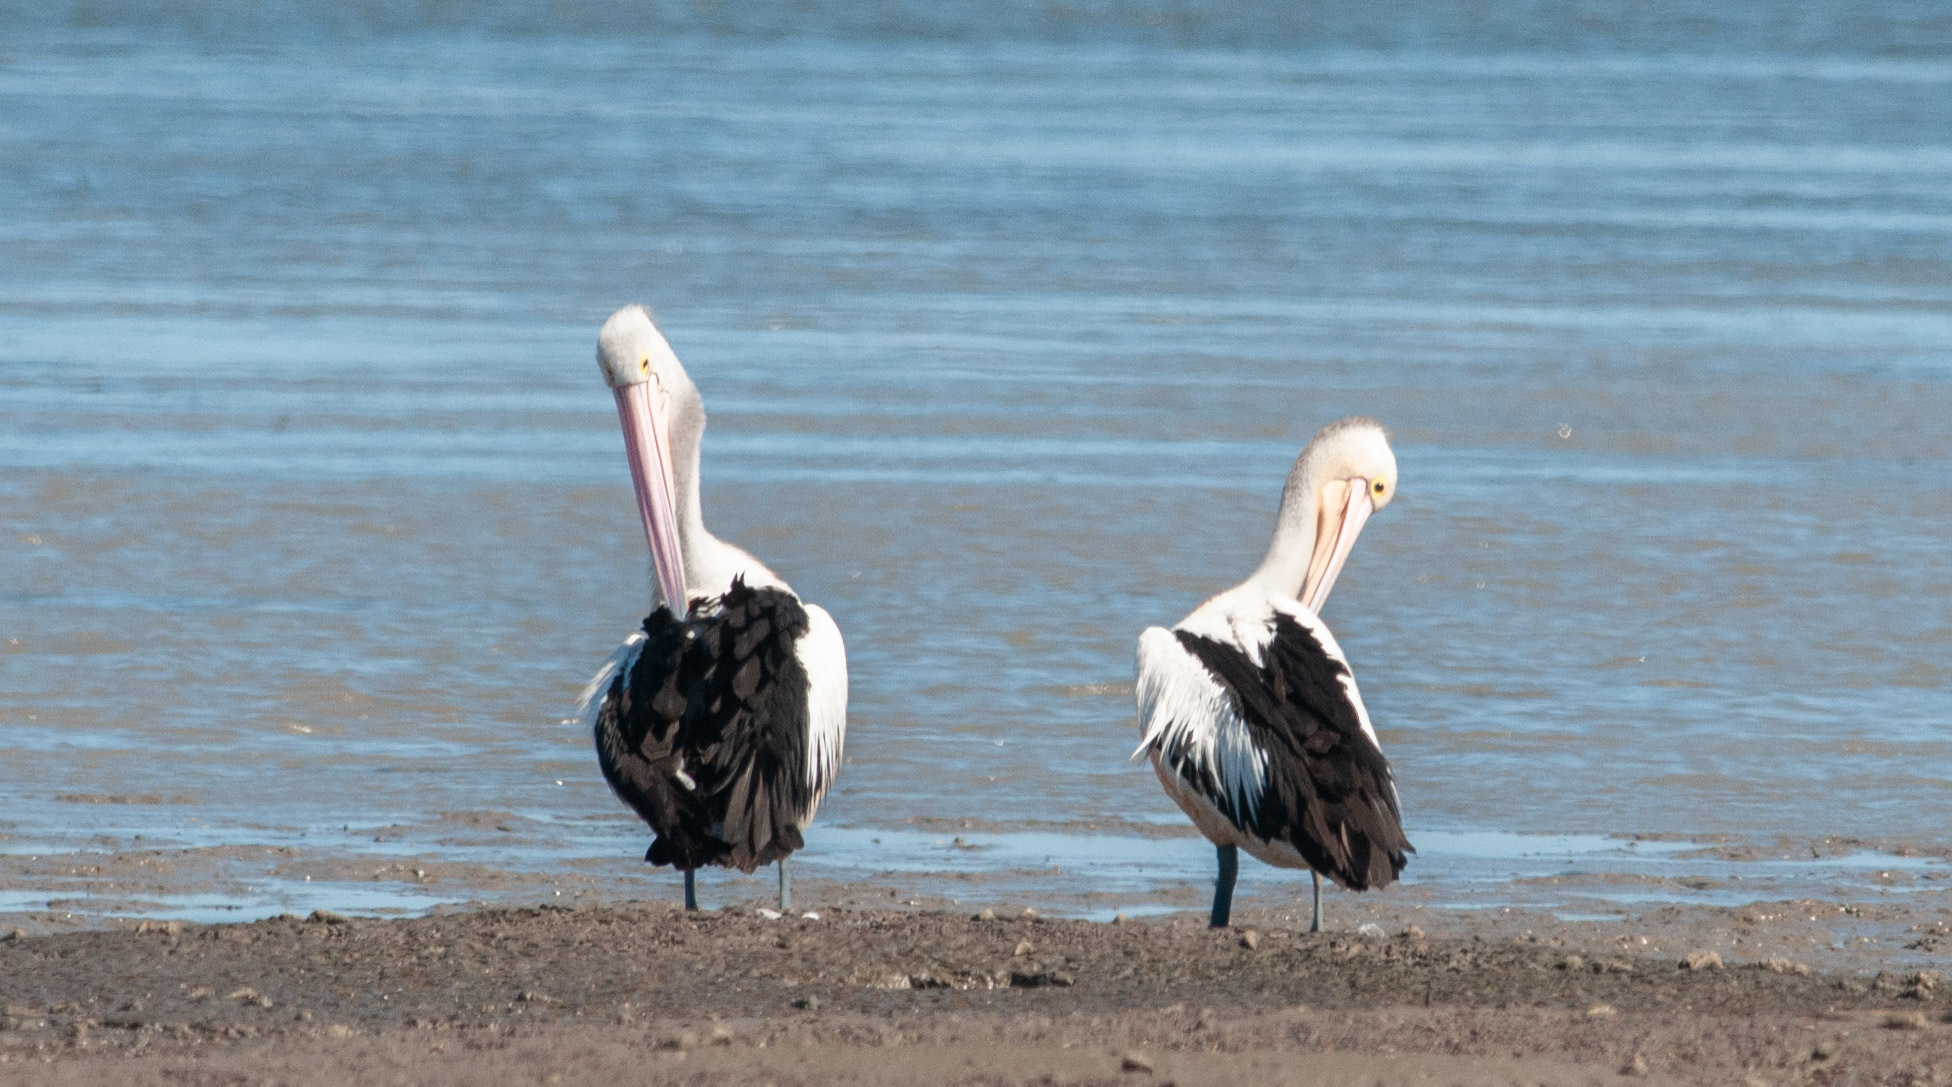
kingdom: Animalia
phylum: Chordata
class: Aves
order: Pelecaniformes
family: Pelecanidae
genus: Pelecanus
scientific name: Pelecanus conspicillatus
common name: Australian pelican
